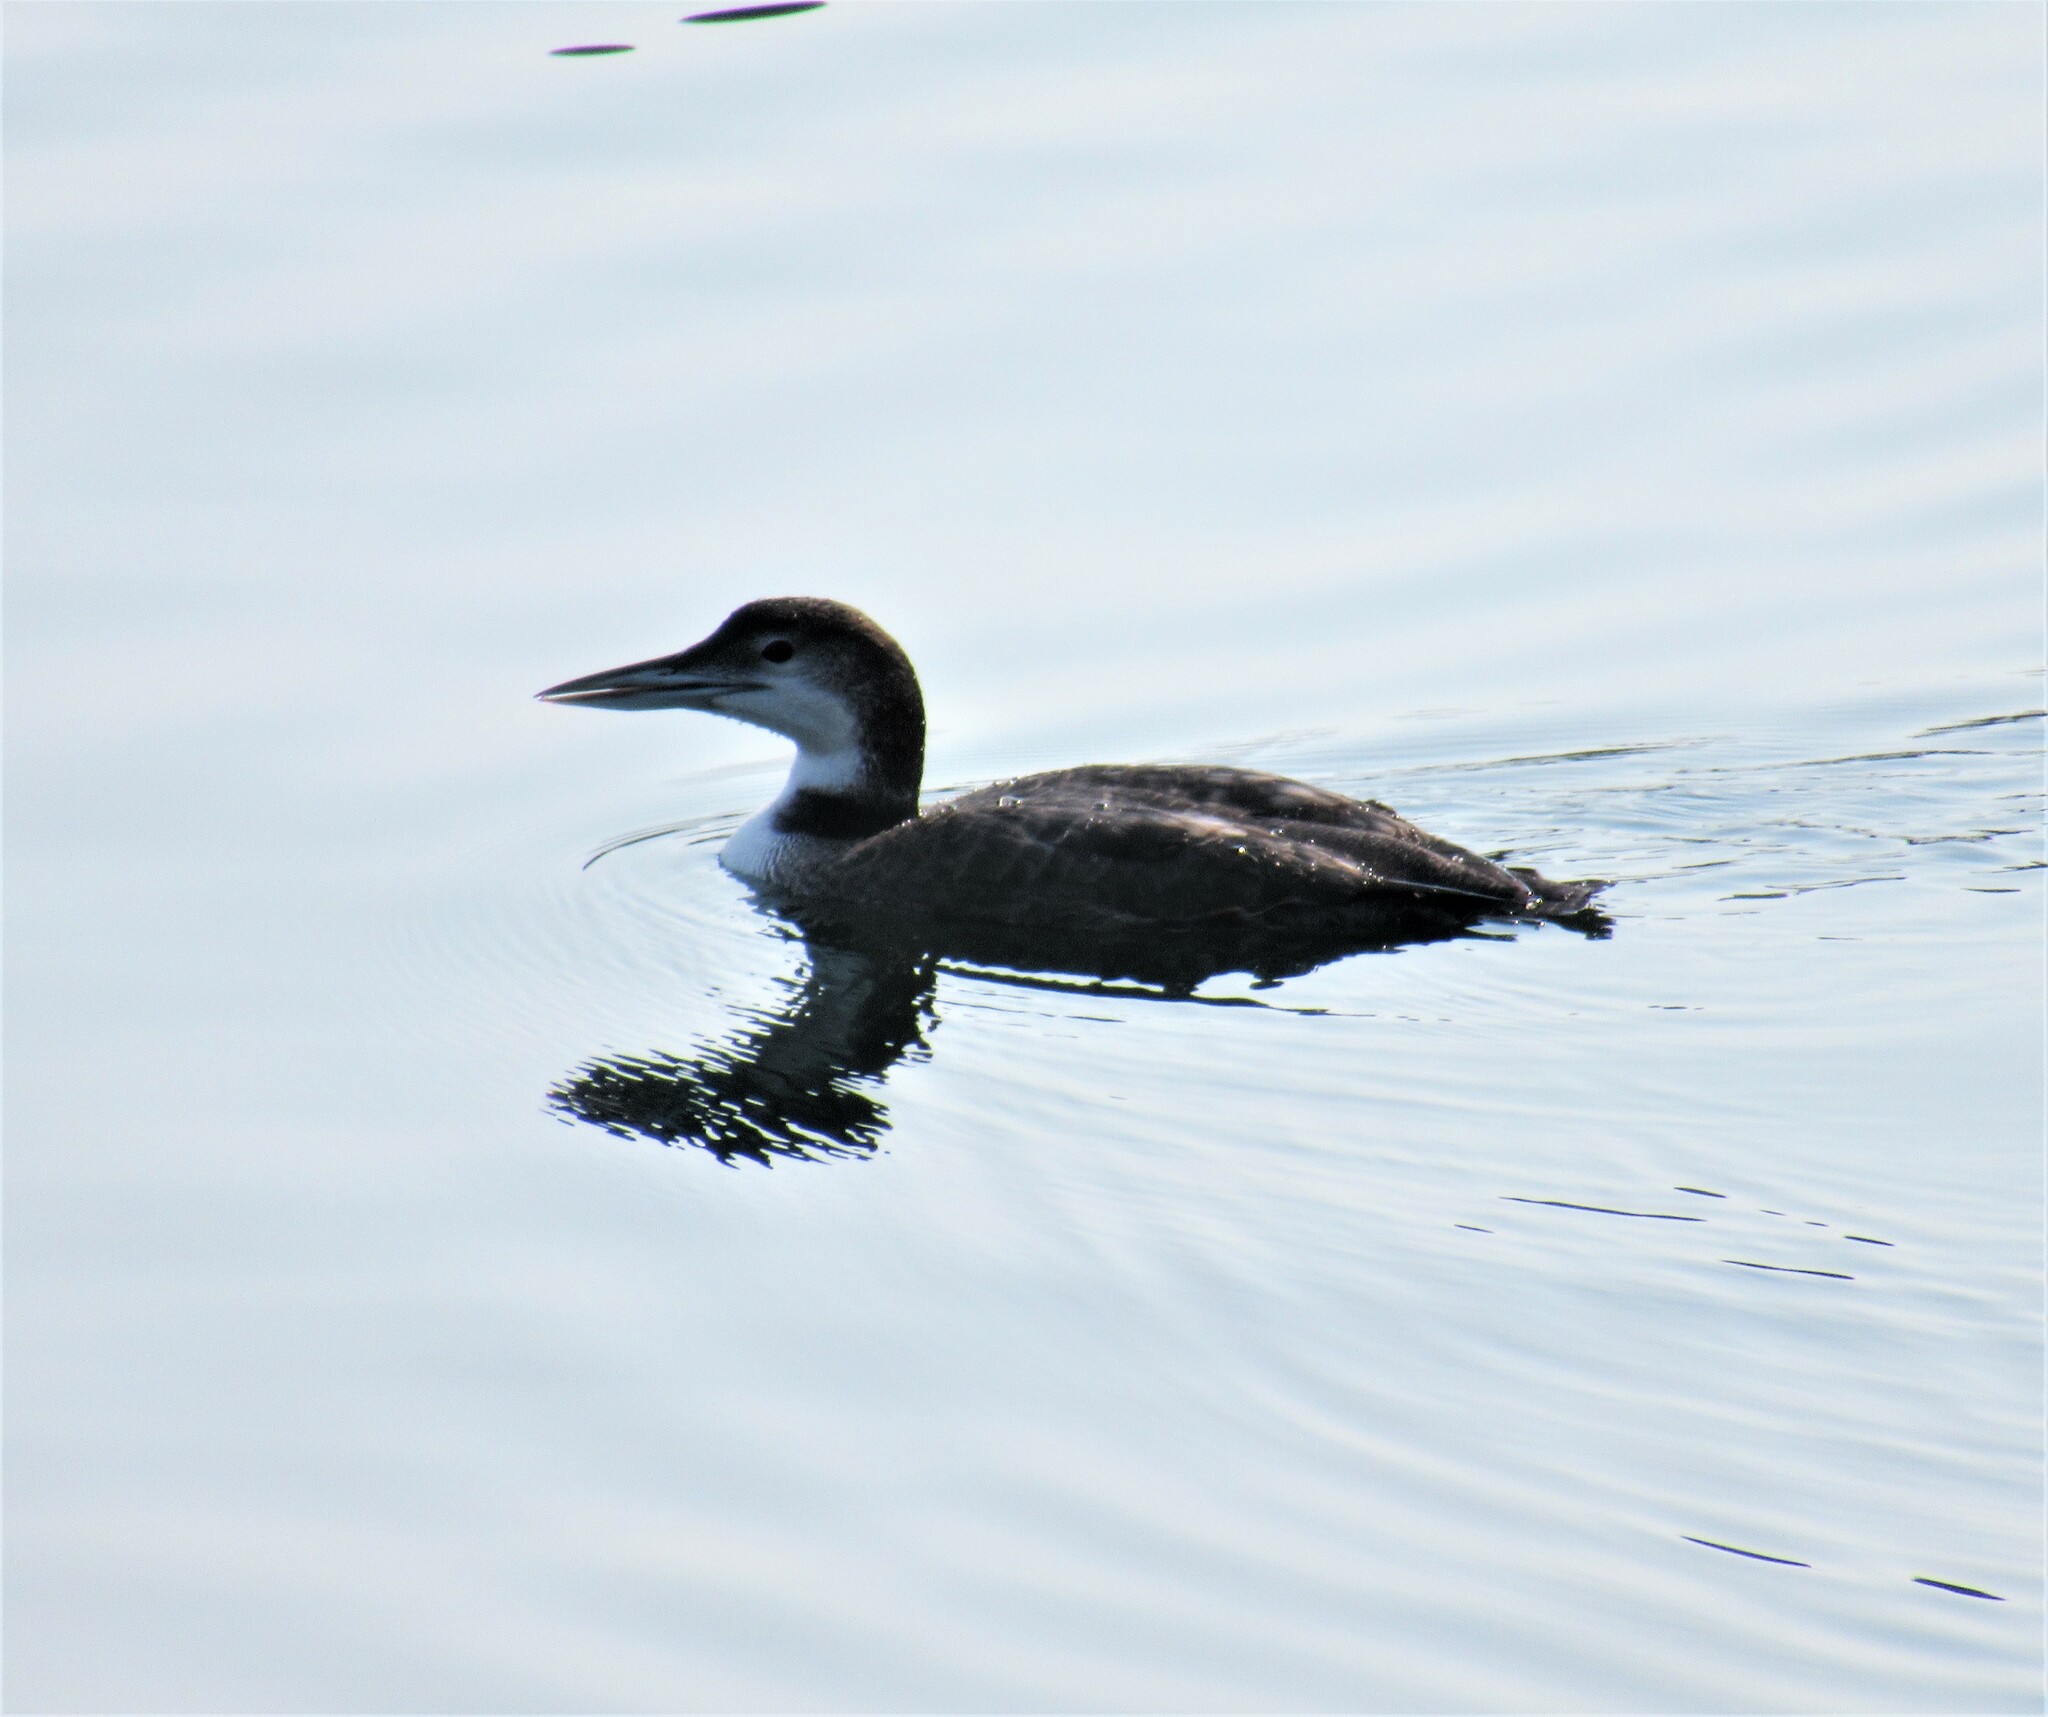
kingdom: Animalia
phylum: Chordata
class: Aves
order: Gaviiformes
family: Gaviidae
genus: Gavia
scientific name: Gavia immer
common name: Common loon
